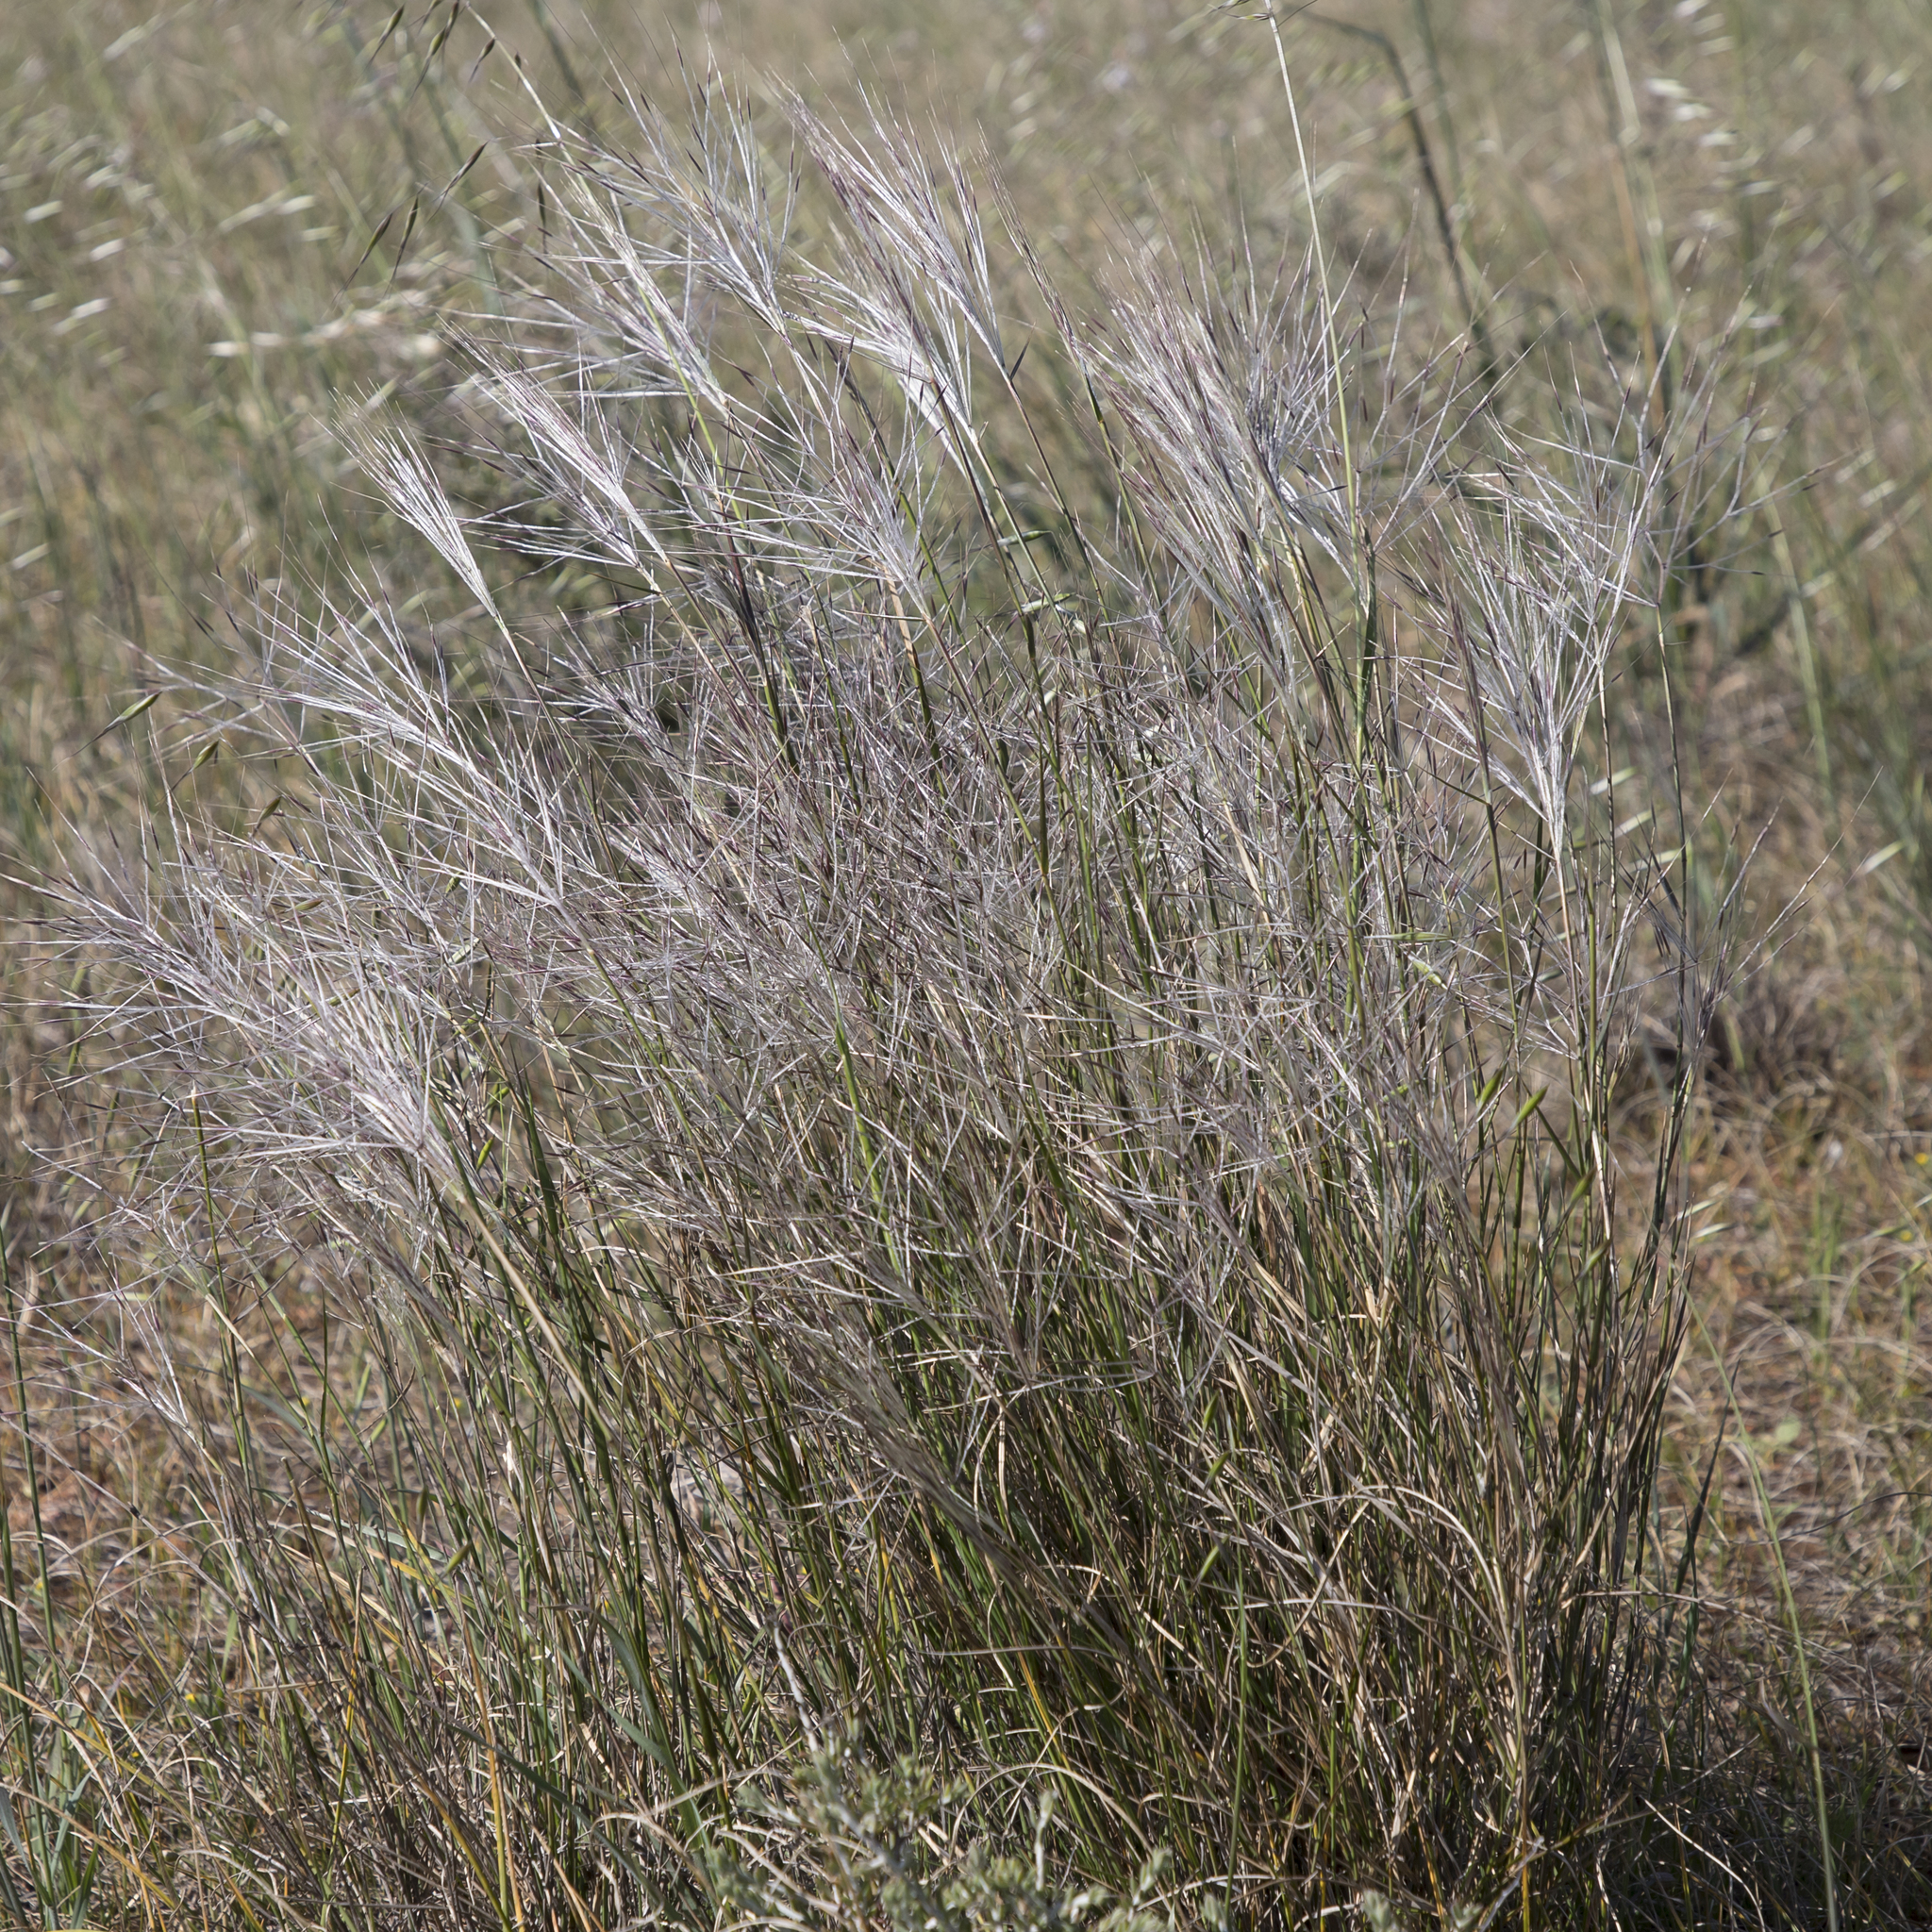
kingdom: Plantae
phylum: Tracheophyta
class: Liliopsida
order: Poales
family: Poaceae
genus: Austrostipa
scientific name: Austrostipa elegantissima
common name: Feather spear grass
